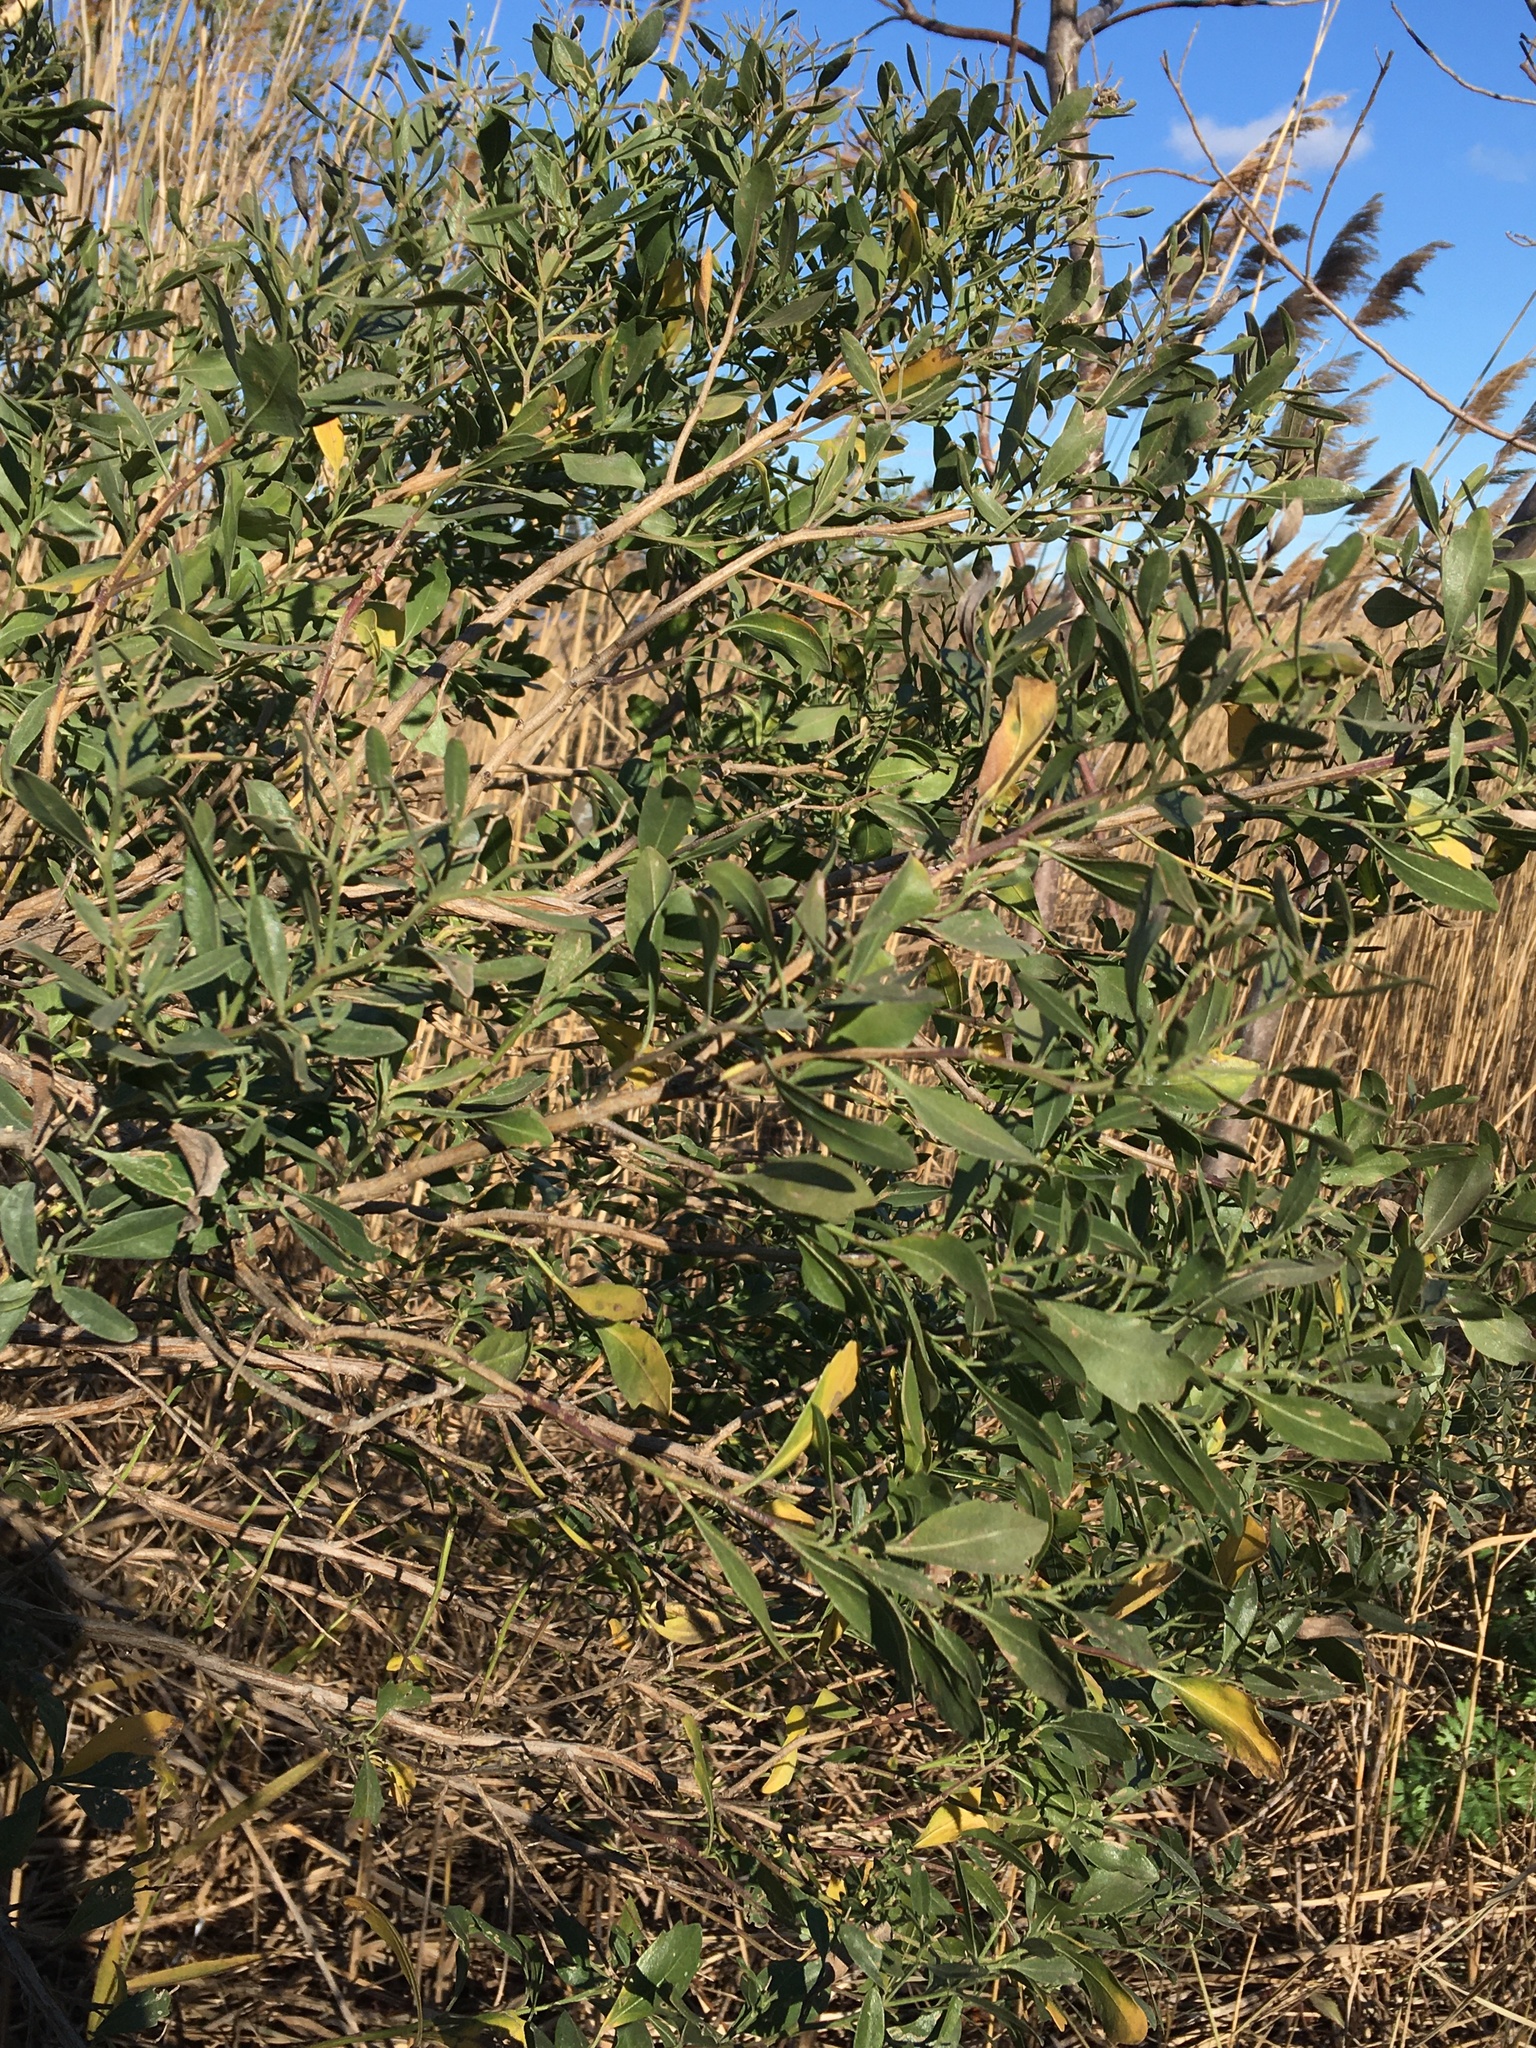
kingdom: Plantae
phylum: Tracheophyta
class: Magnoliopsida
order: Asterales
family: Asteraceae
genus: Baccharis
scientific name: Baccharis halimifolia
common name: Eastern baccharis
